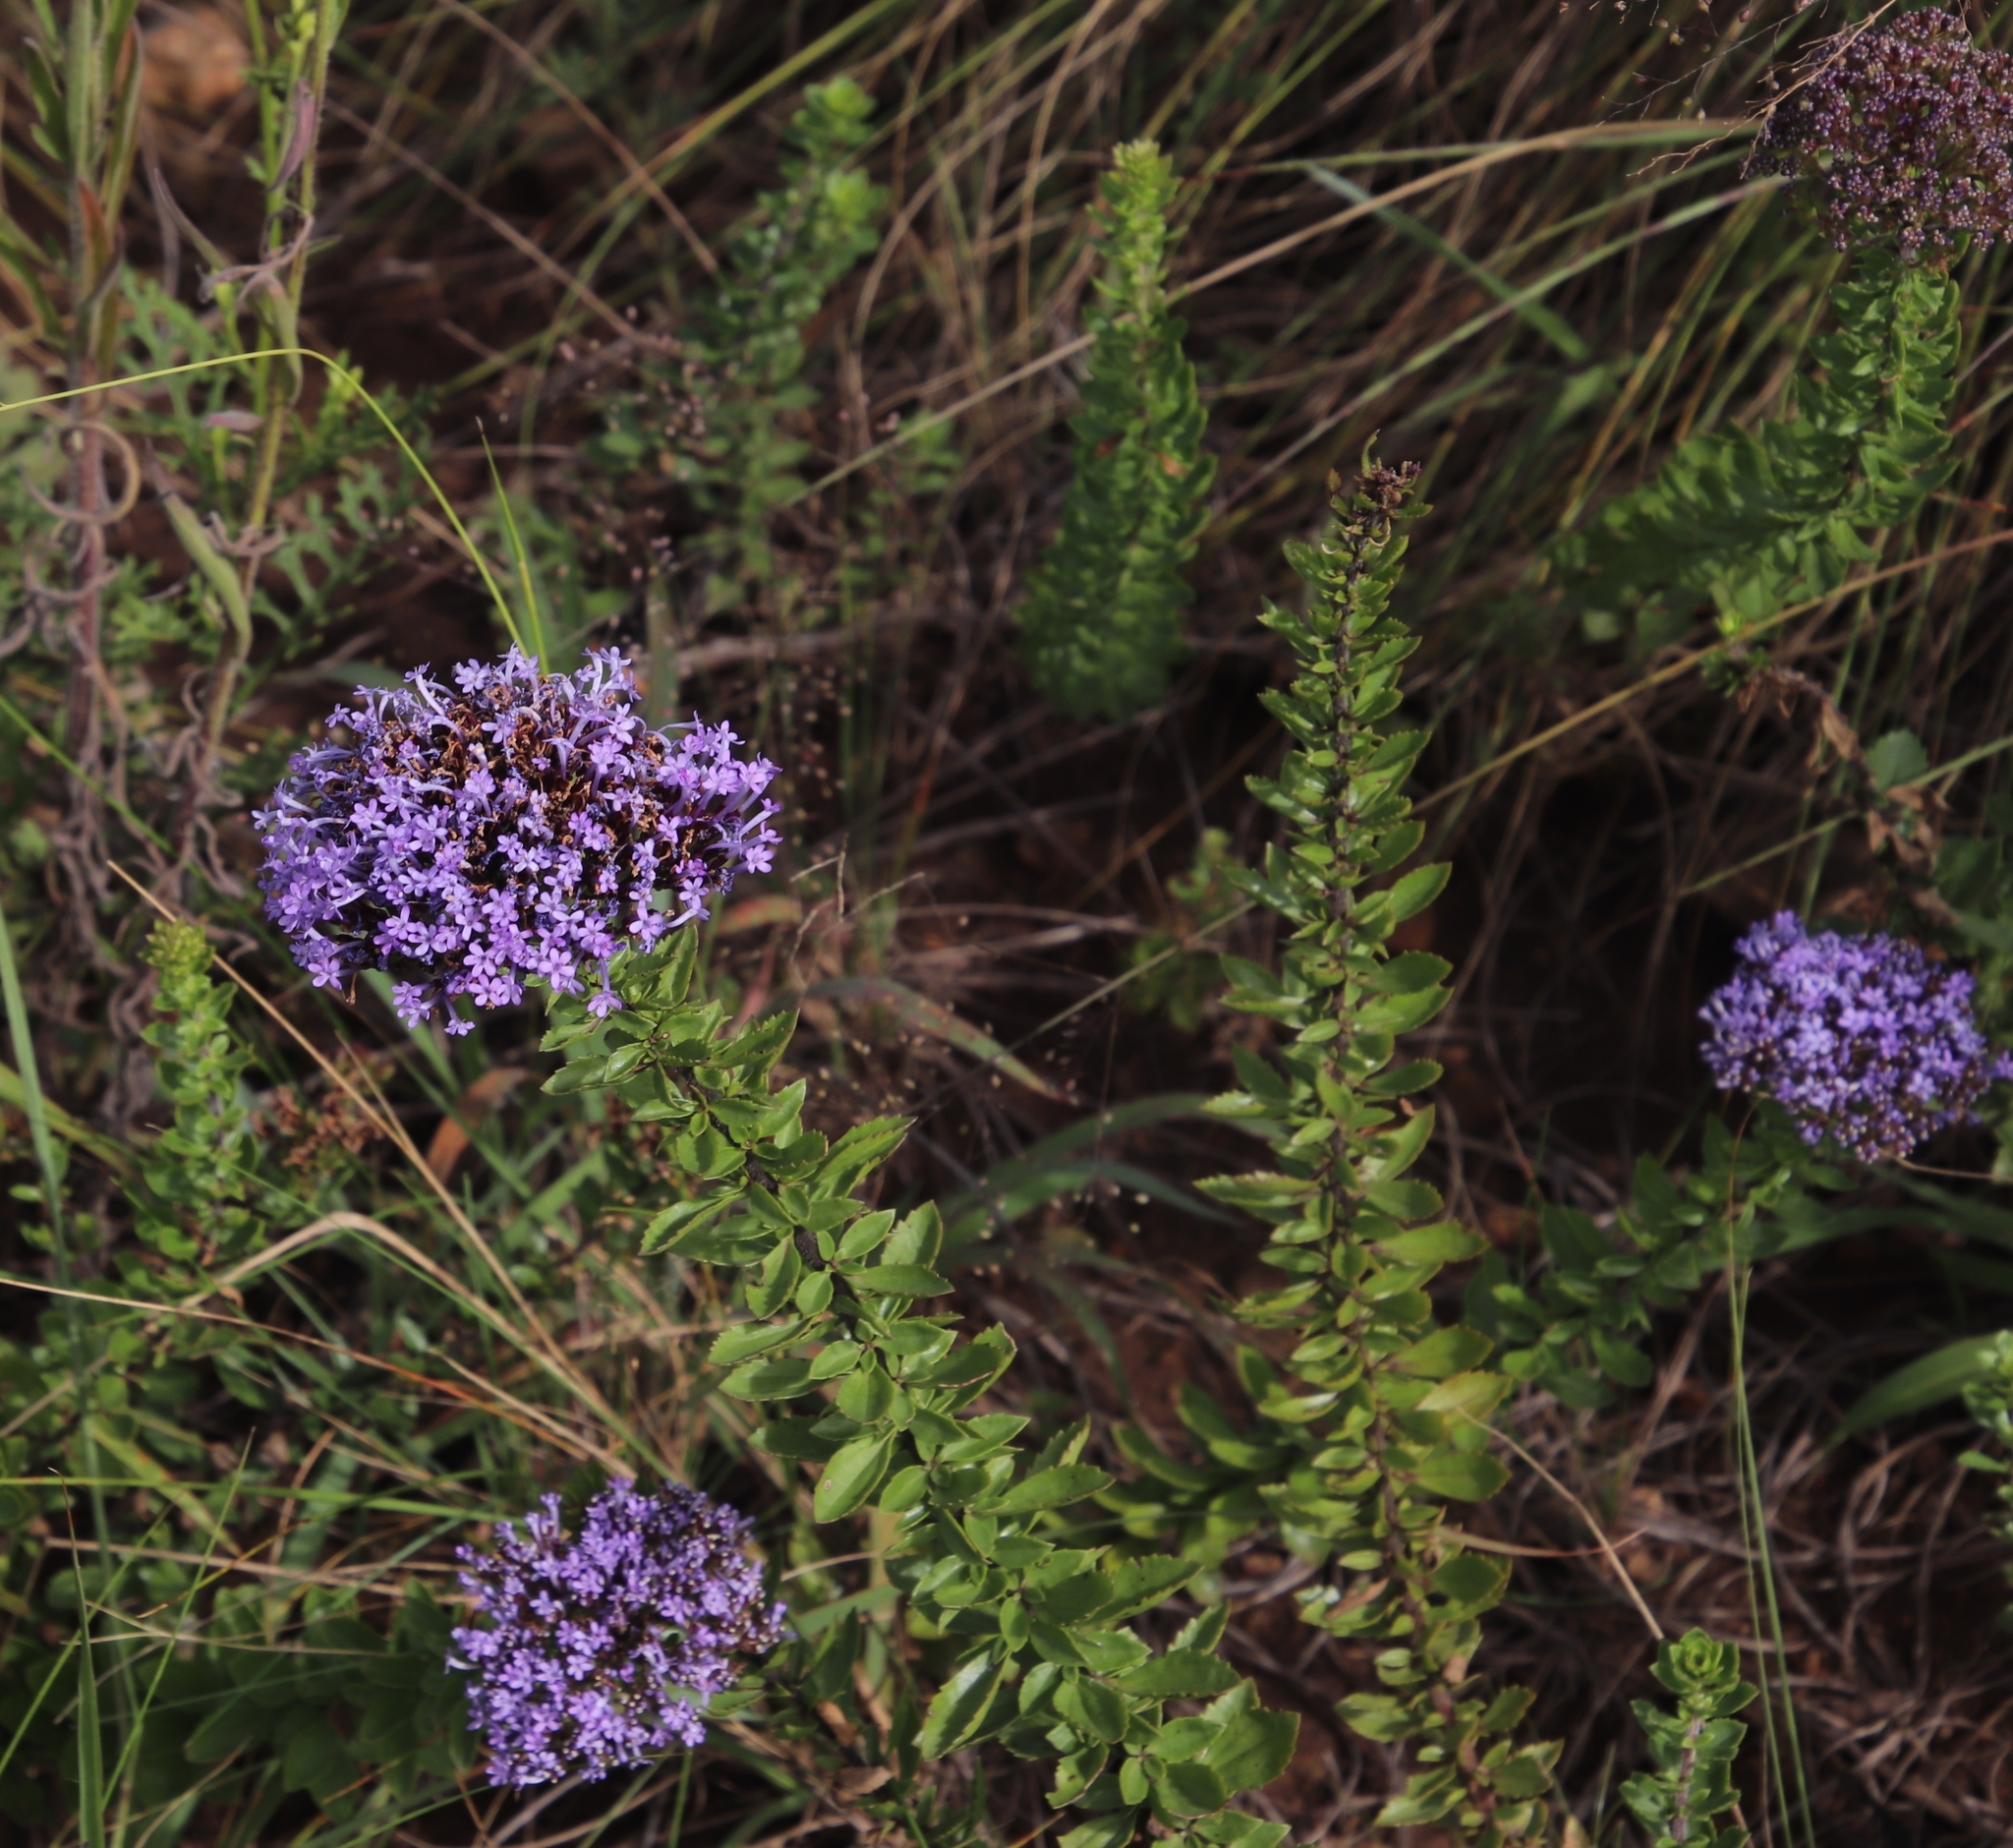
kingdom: Plantae
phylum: Tracheophyta
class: Magnoliopsida
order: Lamiales
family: Scrophulariaceae
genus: Tetraselago
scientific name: Tetraselago longituba
